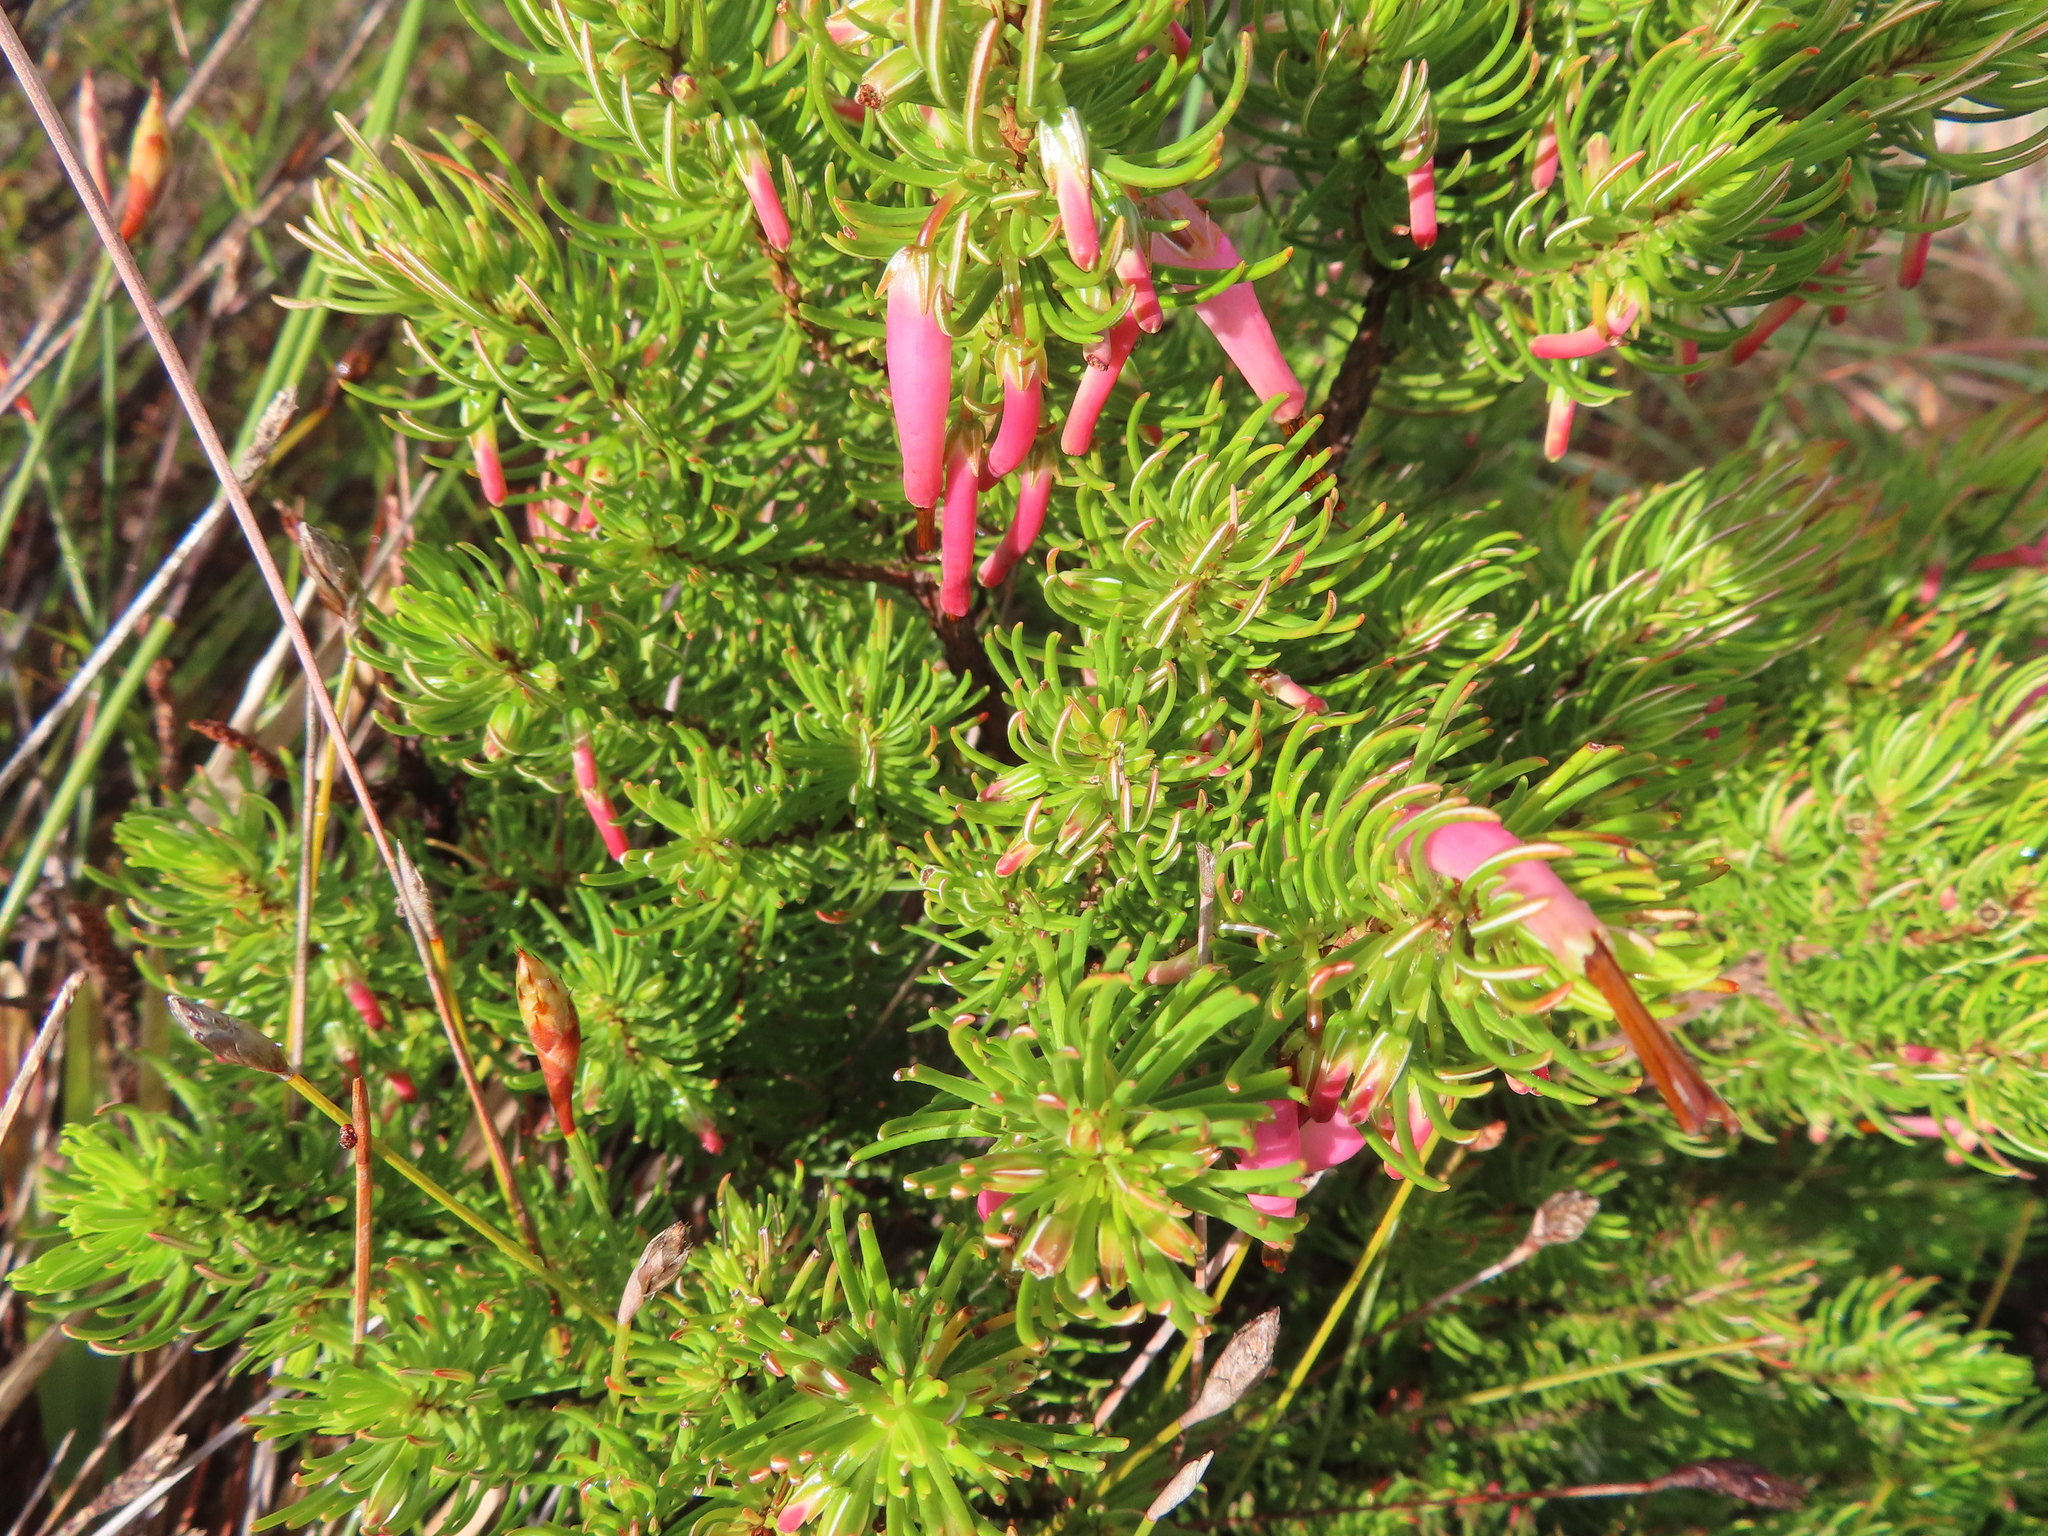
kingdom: Plantae
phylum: Tracheophyta
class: Magnoliopsida
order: Ericales
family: Ericaceae
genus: Erica
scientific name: Erica plukenetii
